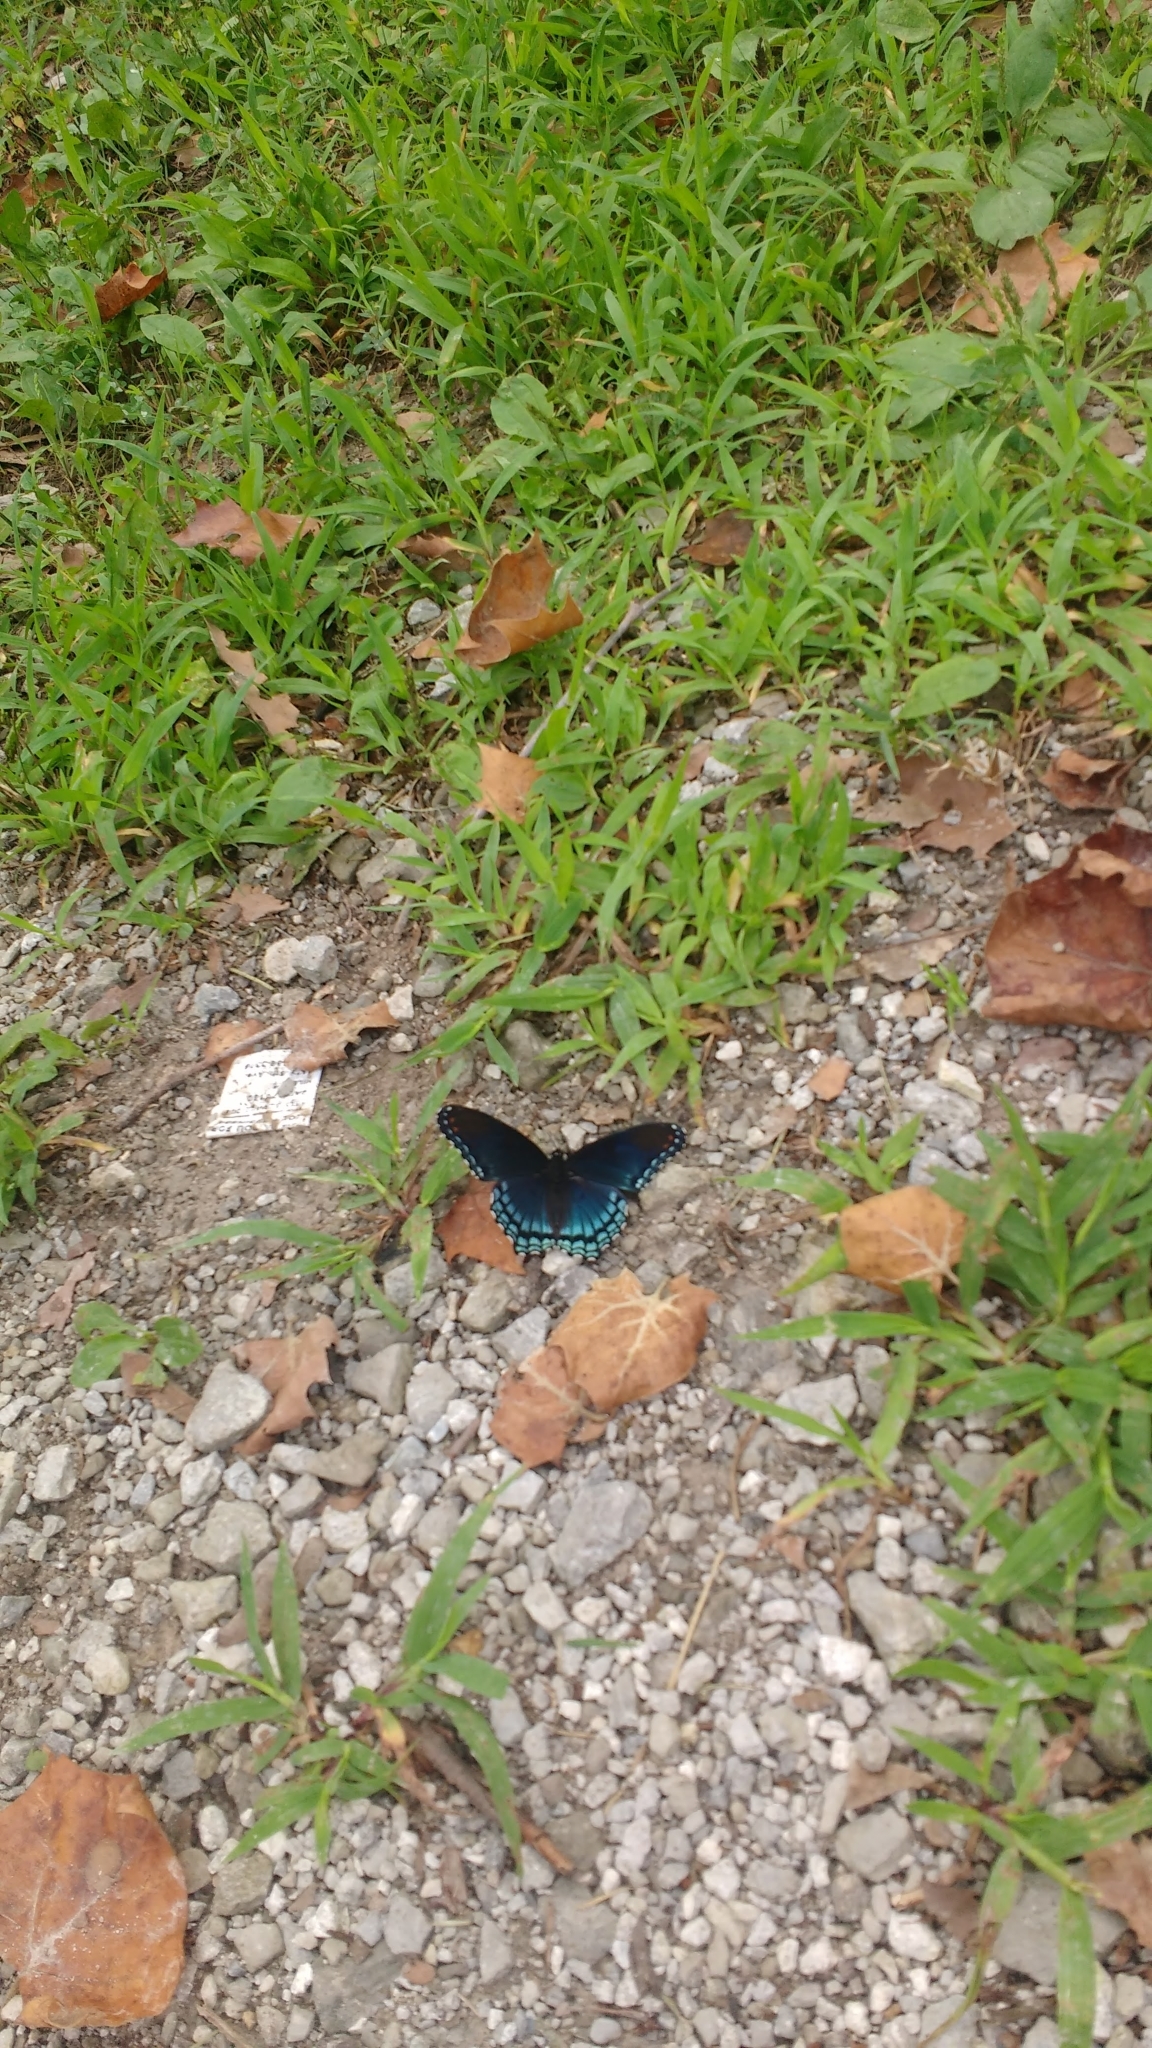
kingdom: Animalia
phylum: Arthropoda
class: Insecta
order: Lepidoptera
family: Nymphalidae
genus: Limenitis
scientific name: Limenitis astyanax
